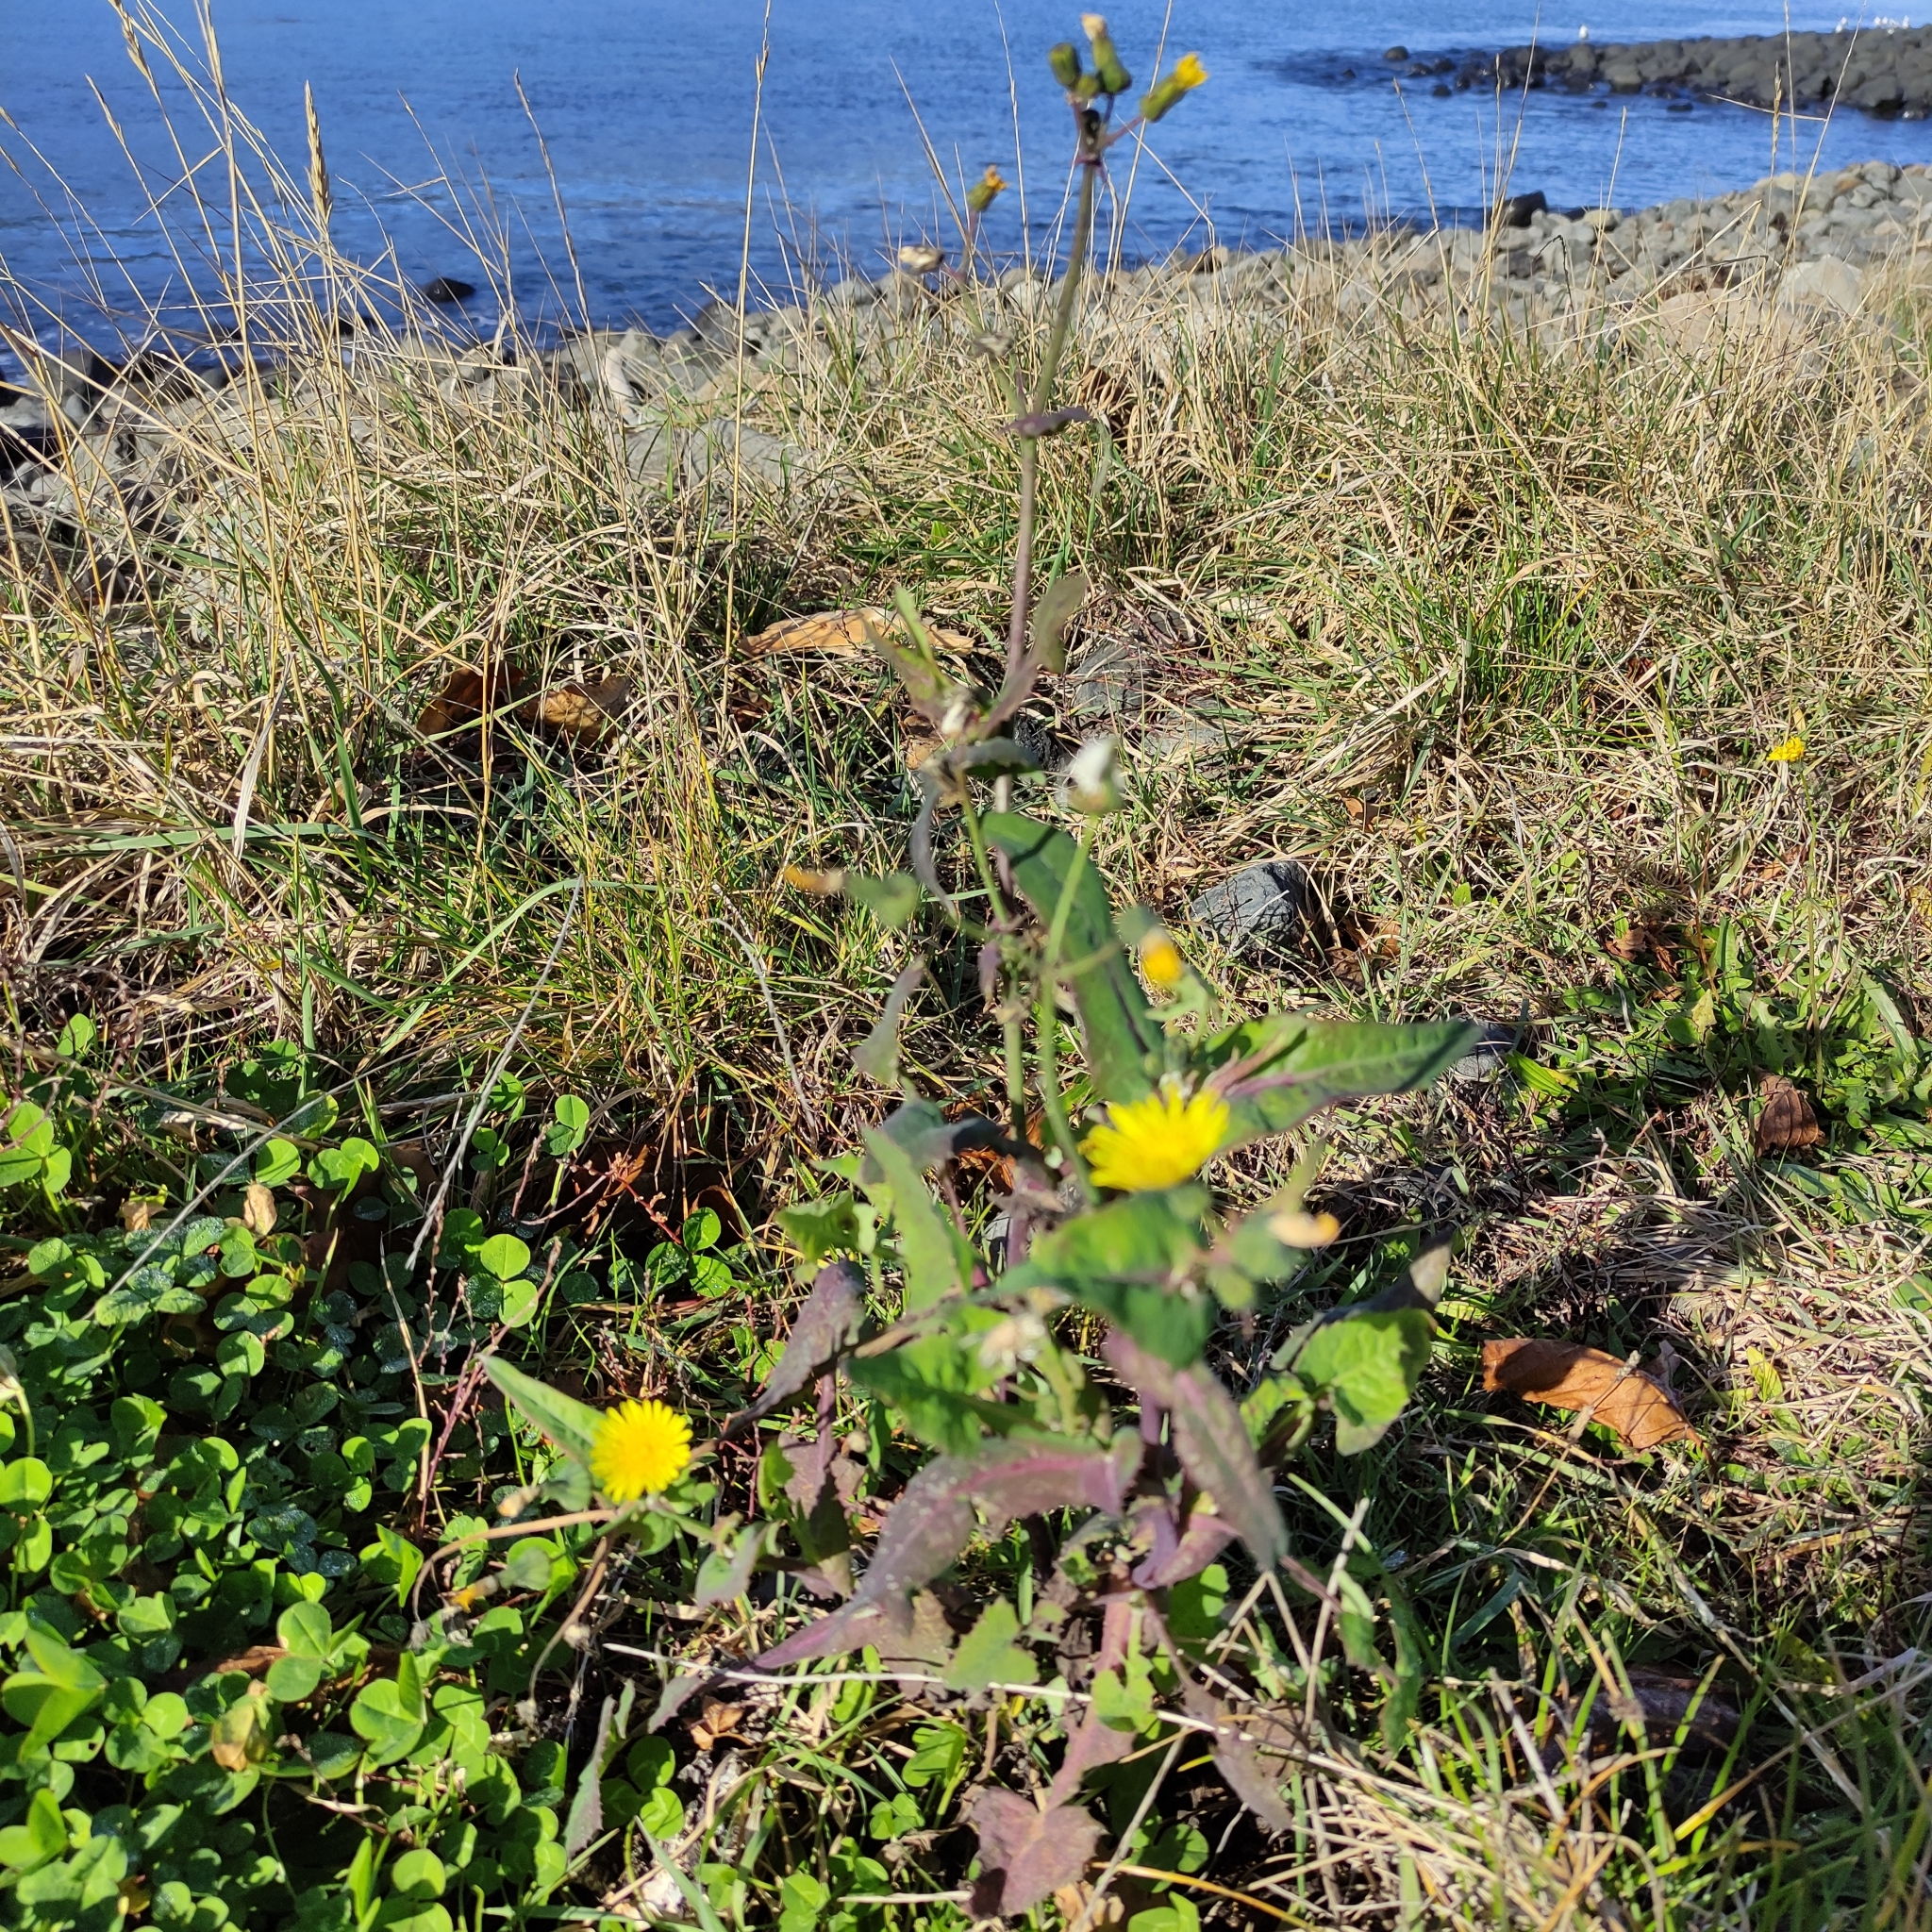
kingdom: Plantae
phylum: Tracheophyta
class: Magnoliopsida
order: Asterales
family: Asteraceae
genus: Sonchus
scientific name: Sonchus oleraceus
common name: Common sowthistle
